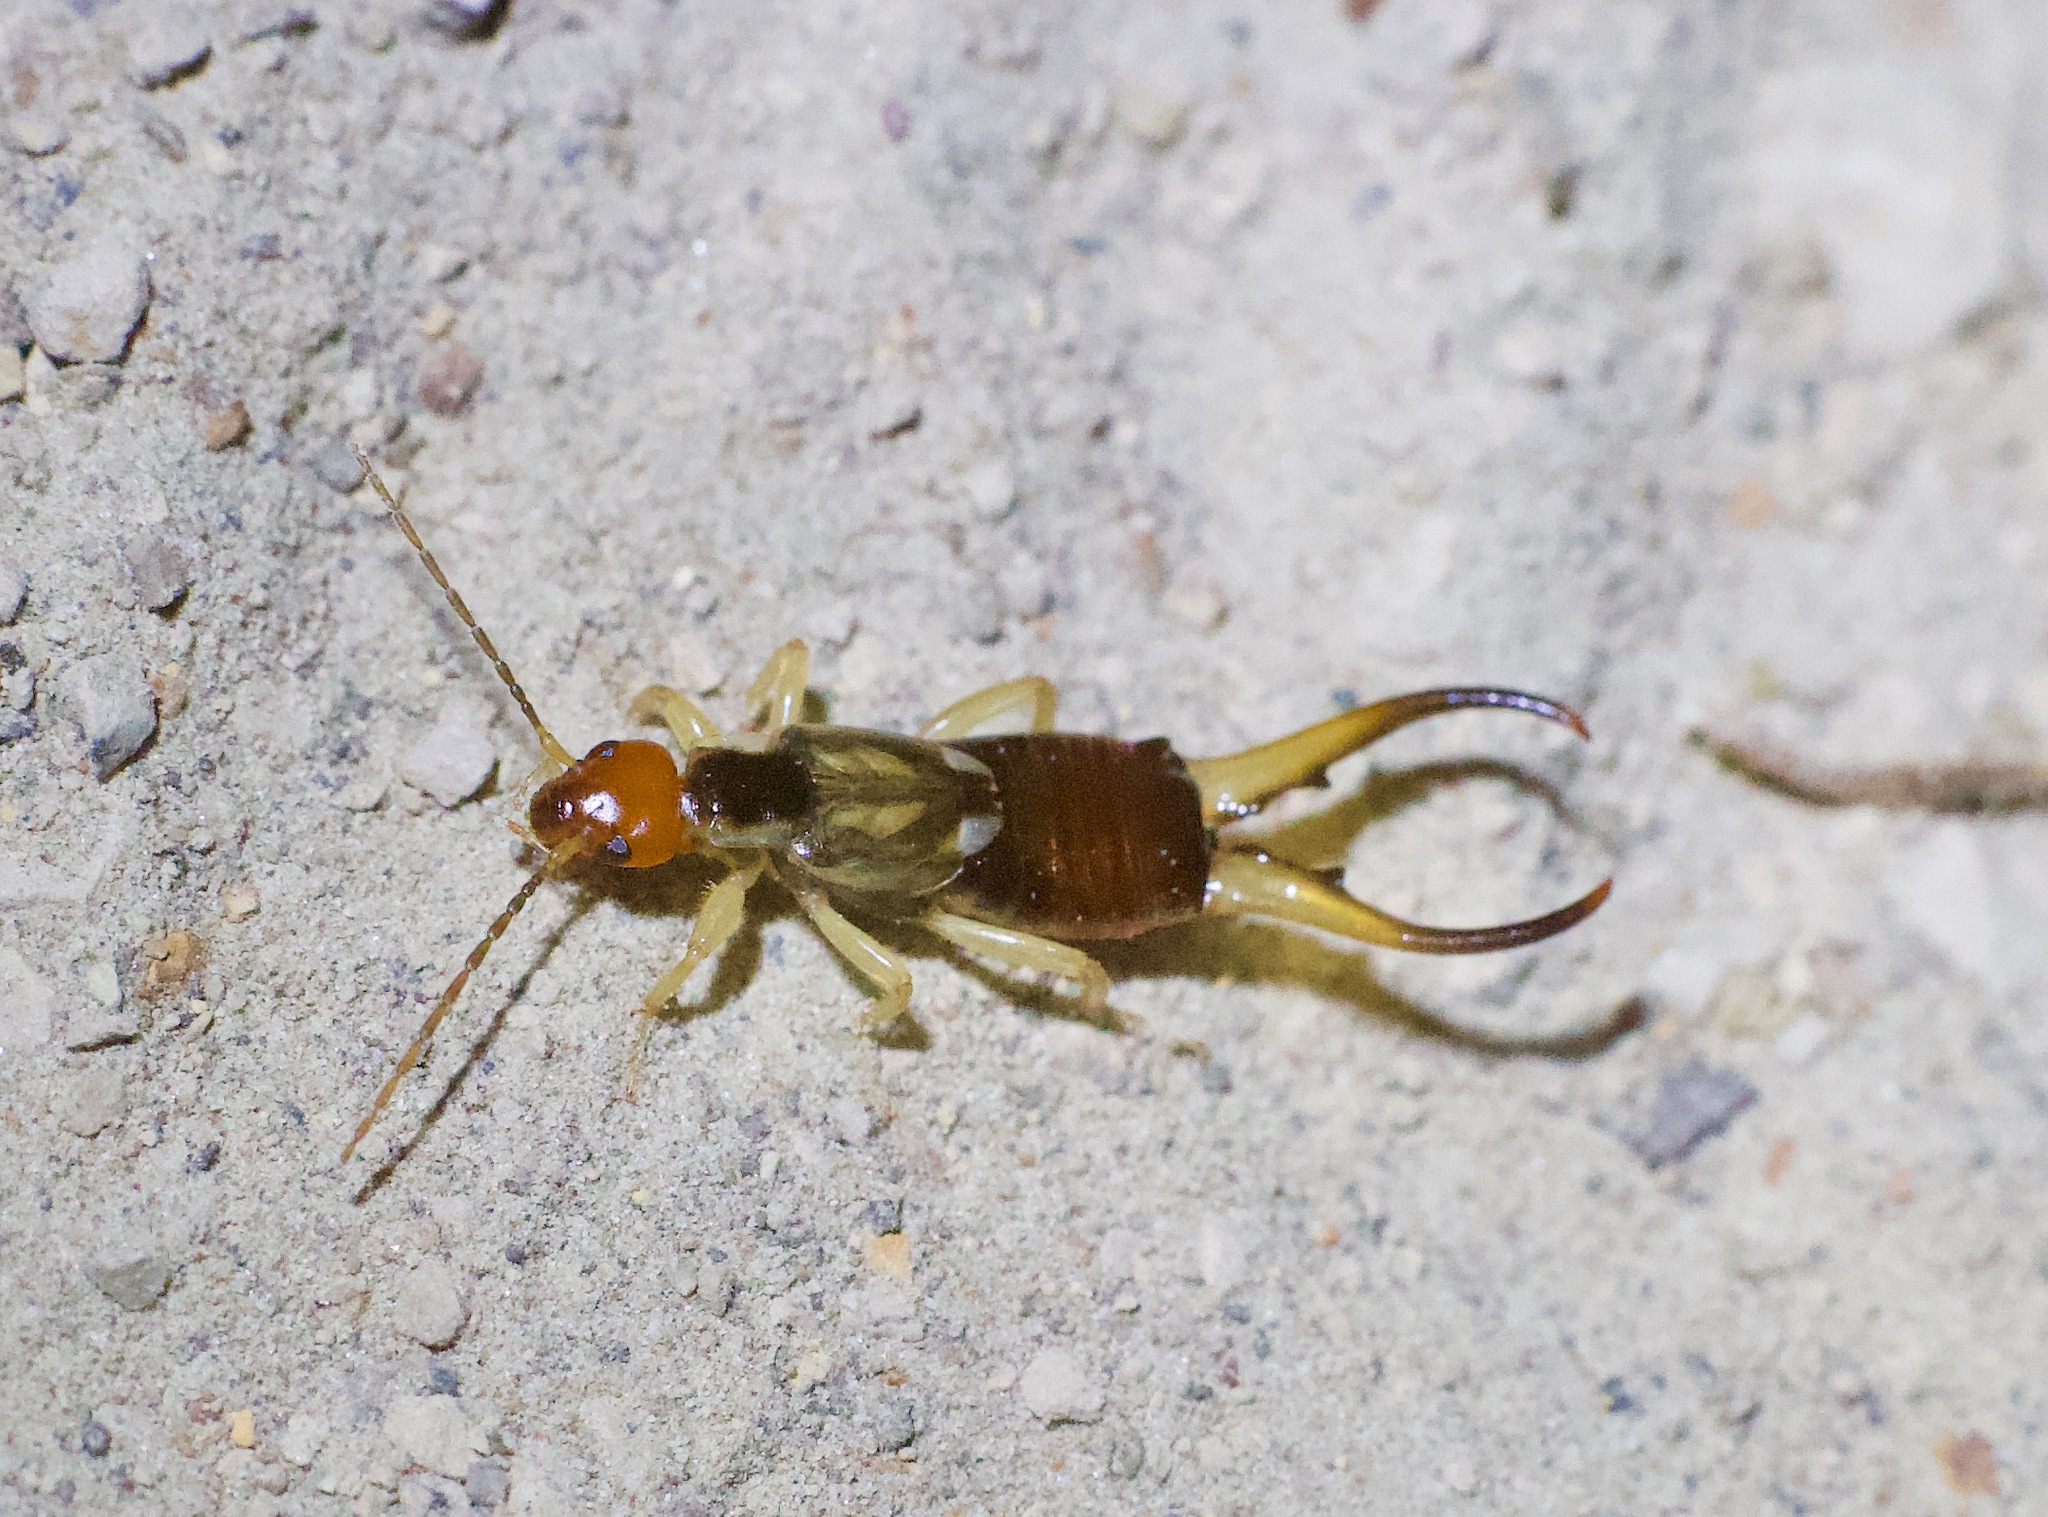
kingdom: Animalia
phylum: Arthropoda
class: Insecta
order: Dermaptera
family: Forficulidae
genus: Forficula
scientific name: Forficula dentata
